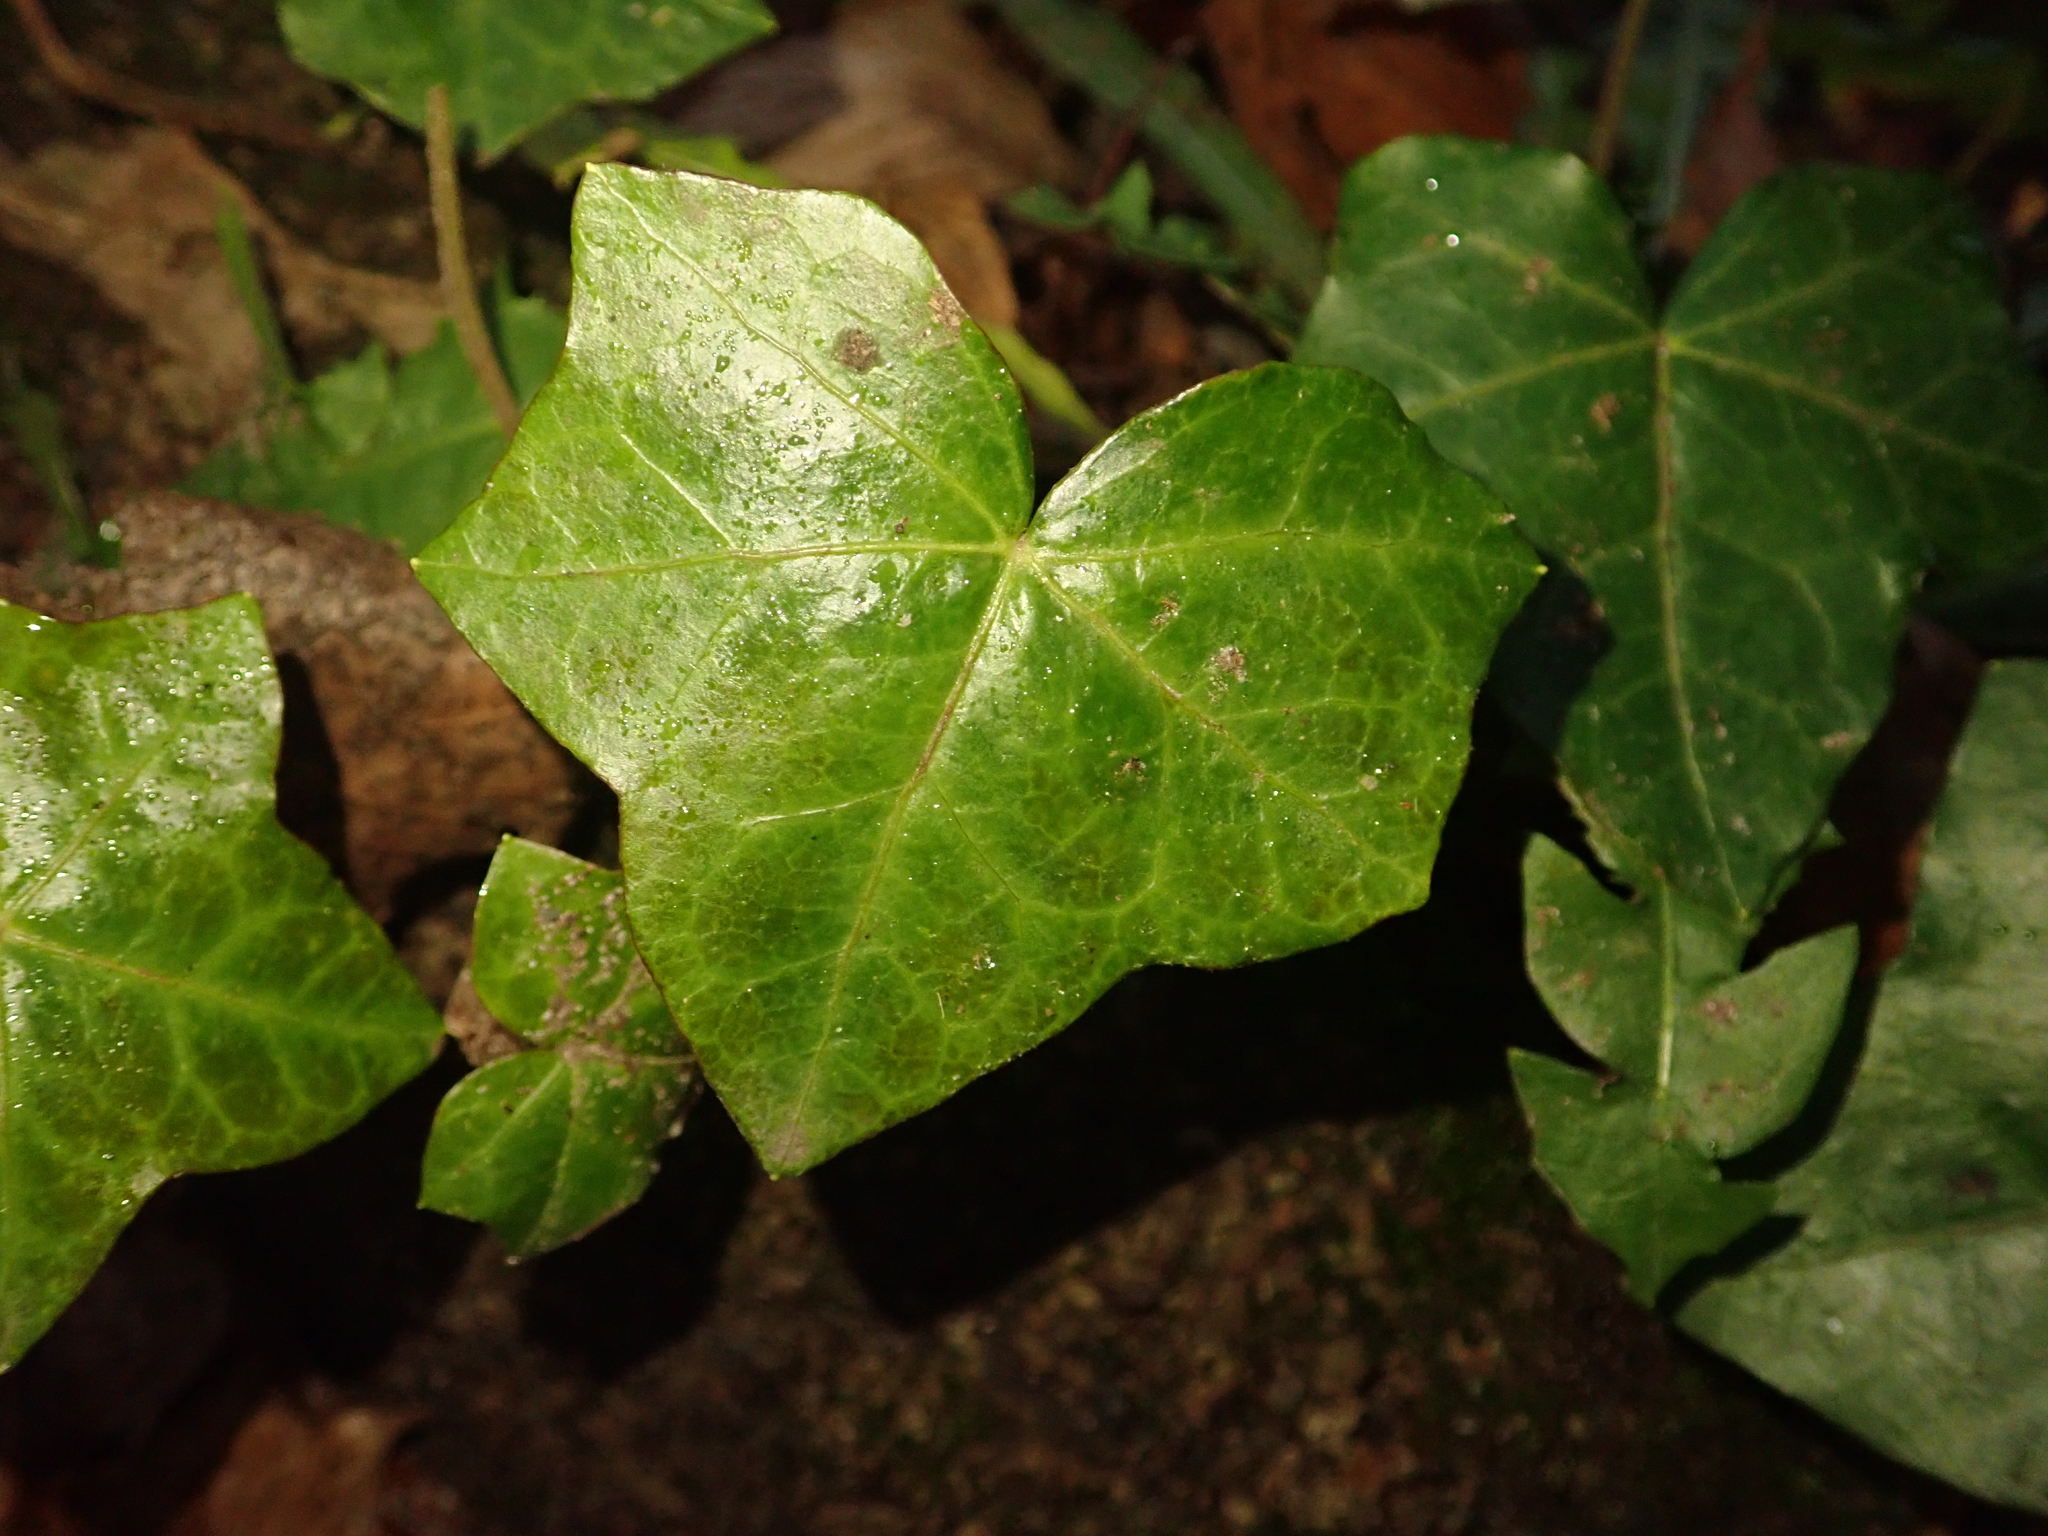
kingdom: Plantae
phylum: Tracheophyta
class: Magnoliopsida
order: Apiales
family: Araliaceae
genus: Hedera
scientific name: Hedera helix
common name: Ivy
